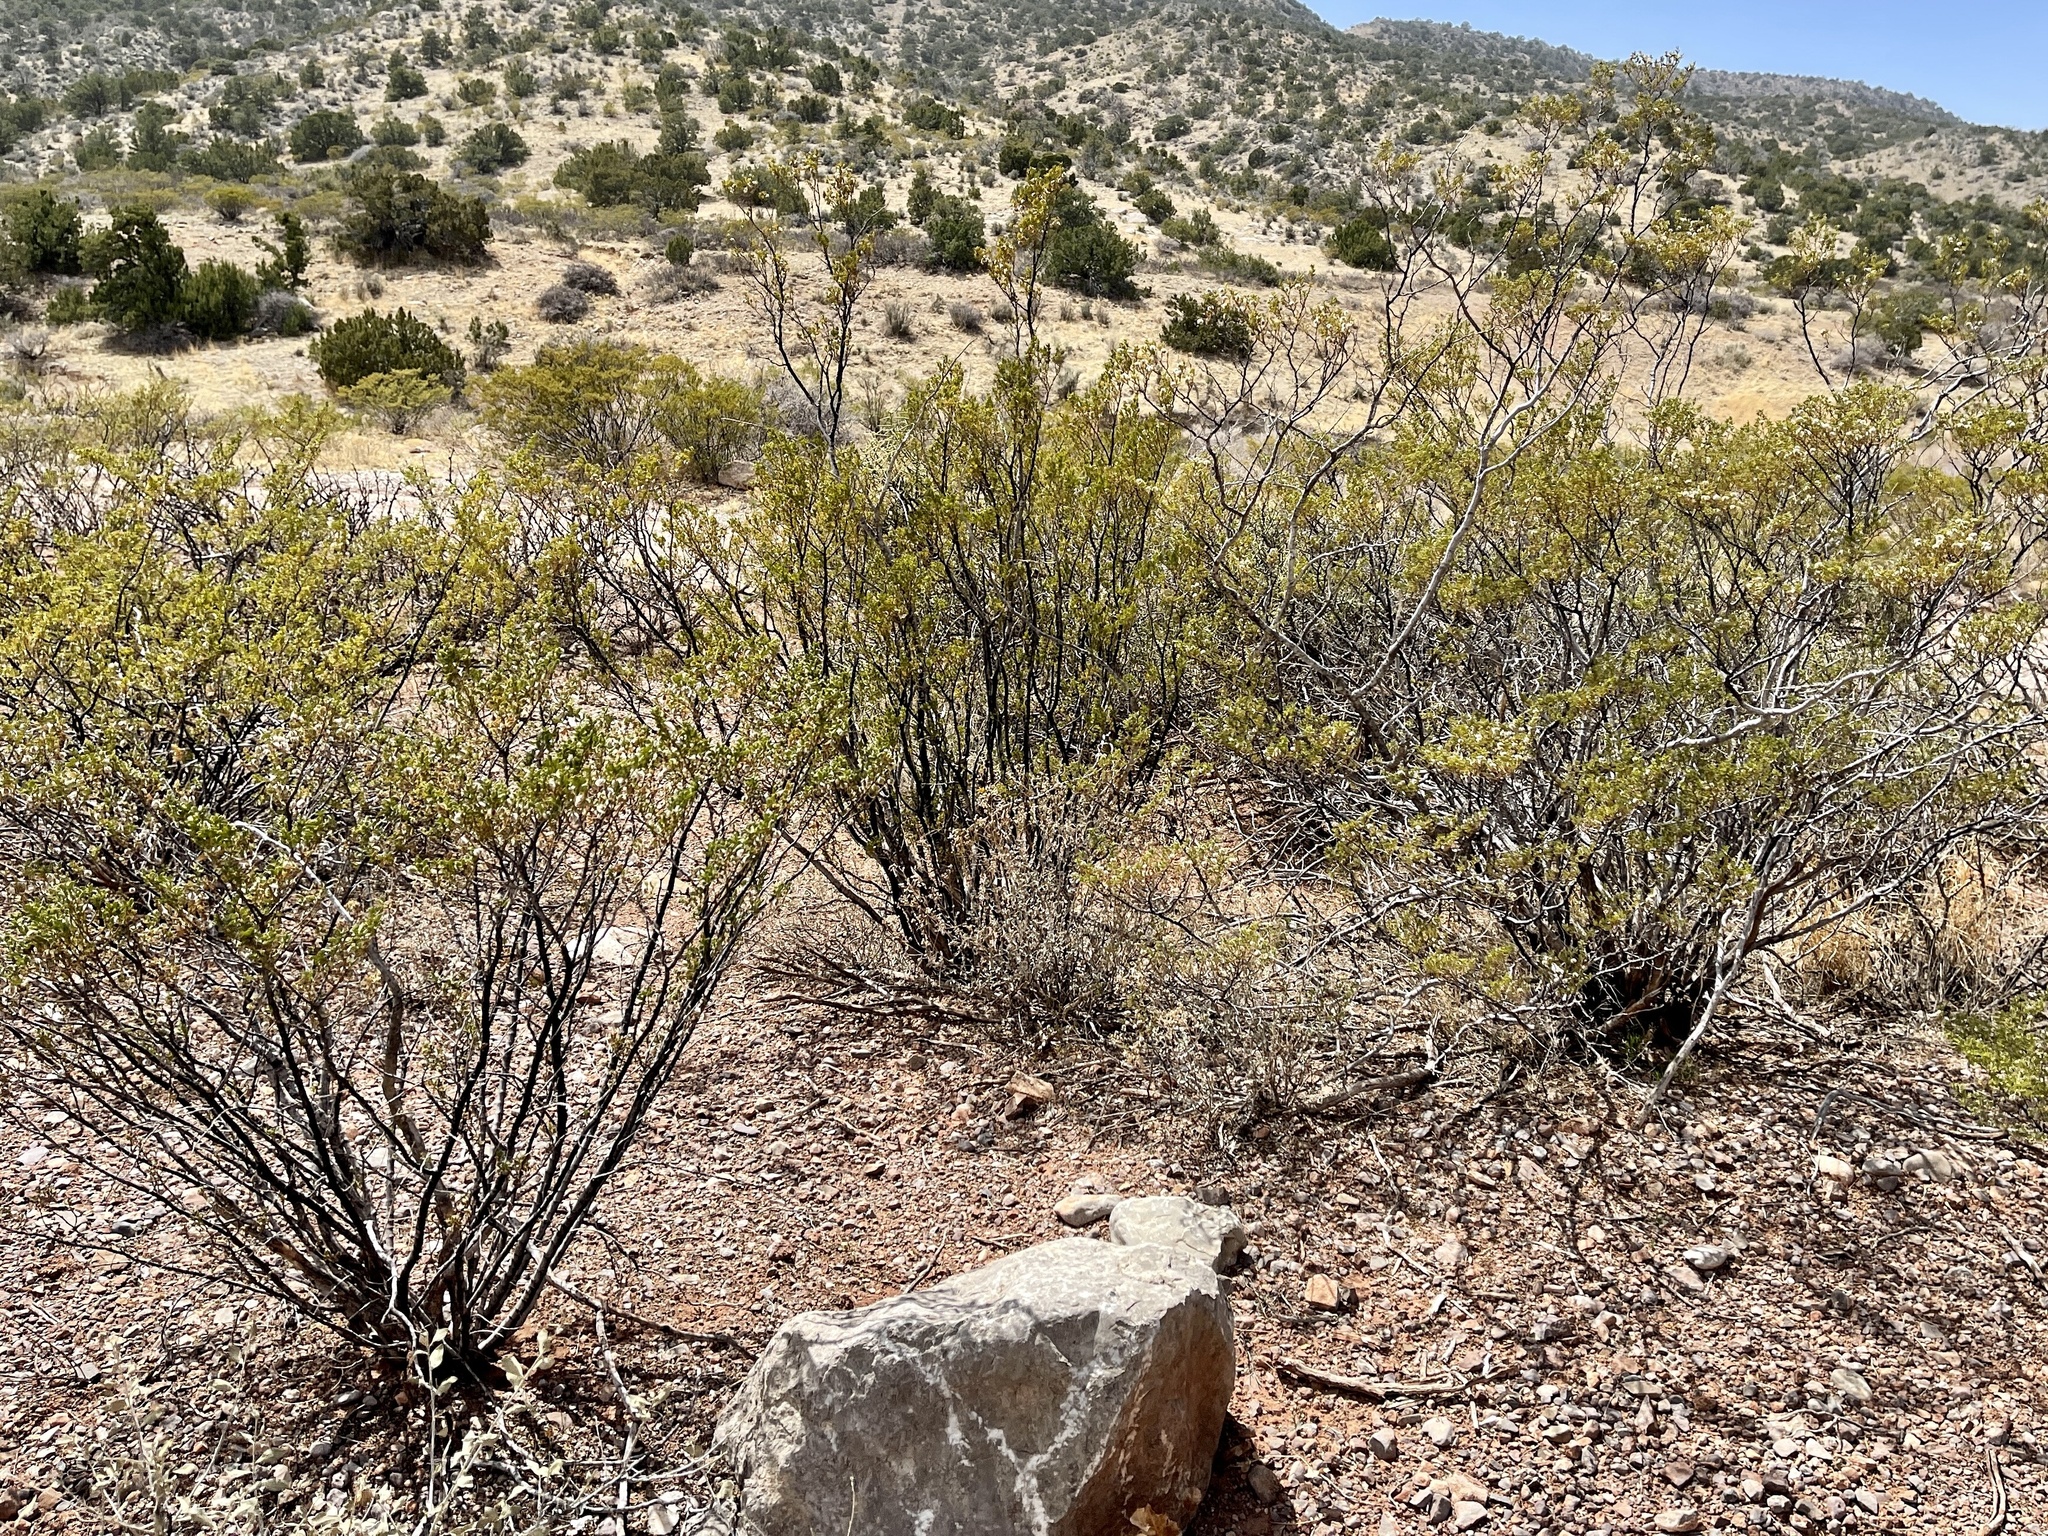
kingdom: Plantae
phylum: Tracheophyta
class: Magnoliopsida
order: Zygophyllales
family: Zygophyllaceae
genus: Larrea
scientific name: Larrea tridentata
